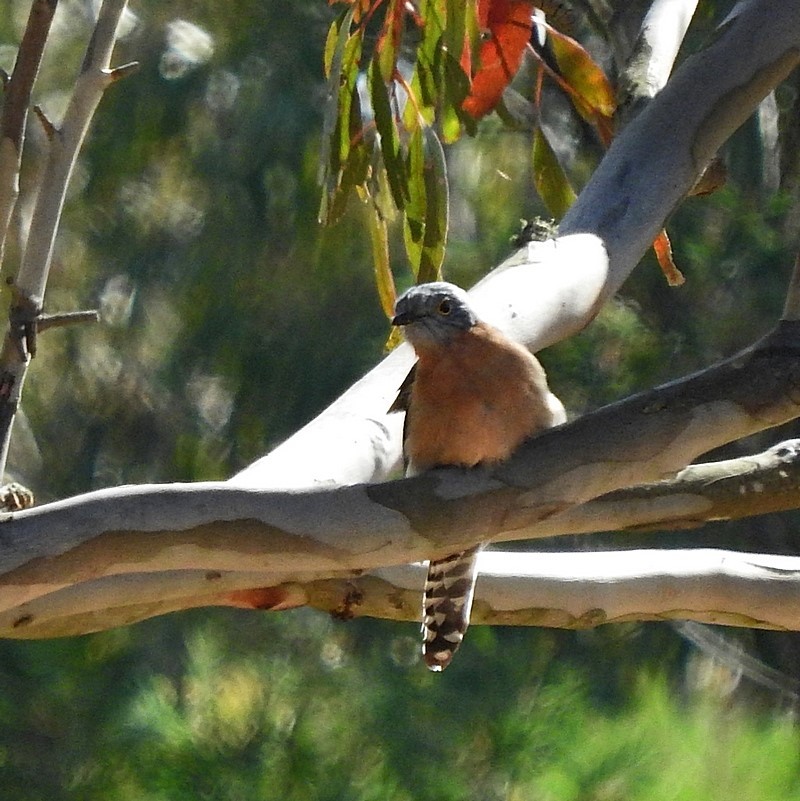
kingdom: Animalia
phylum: Chordata
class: Aves
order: Cuculiformes
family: Cuculidae
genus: Cacomantis
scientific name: Cacomantis flabelliformis
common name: Fan-tailed cuckoo
